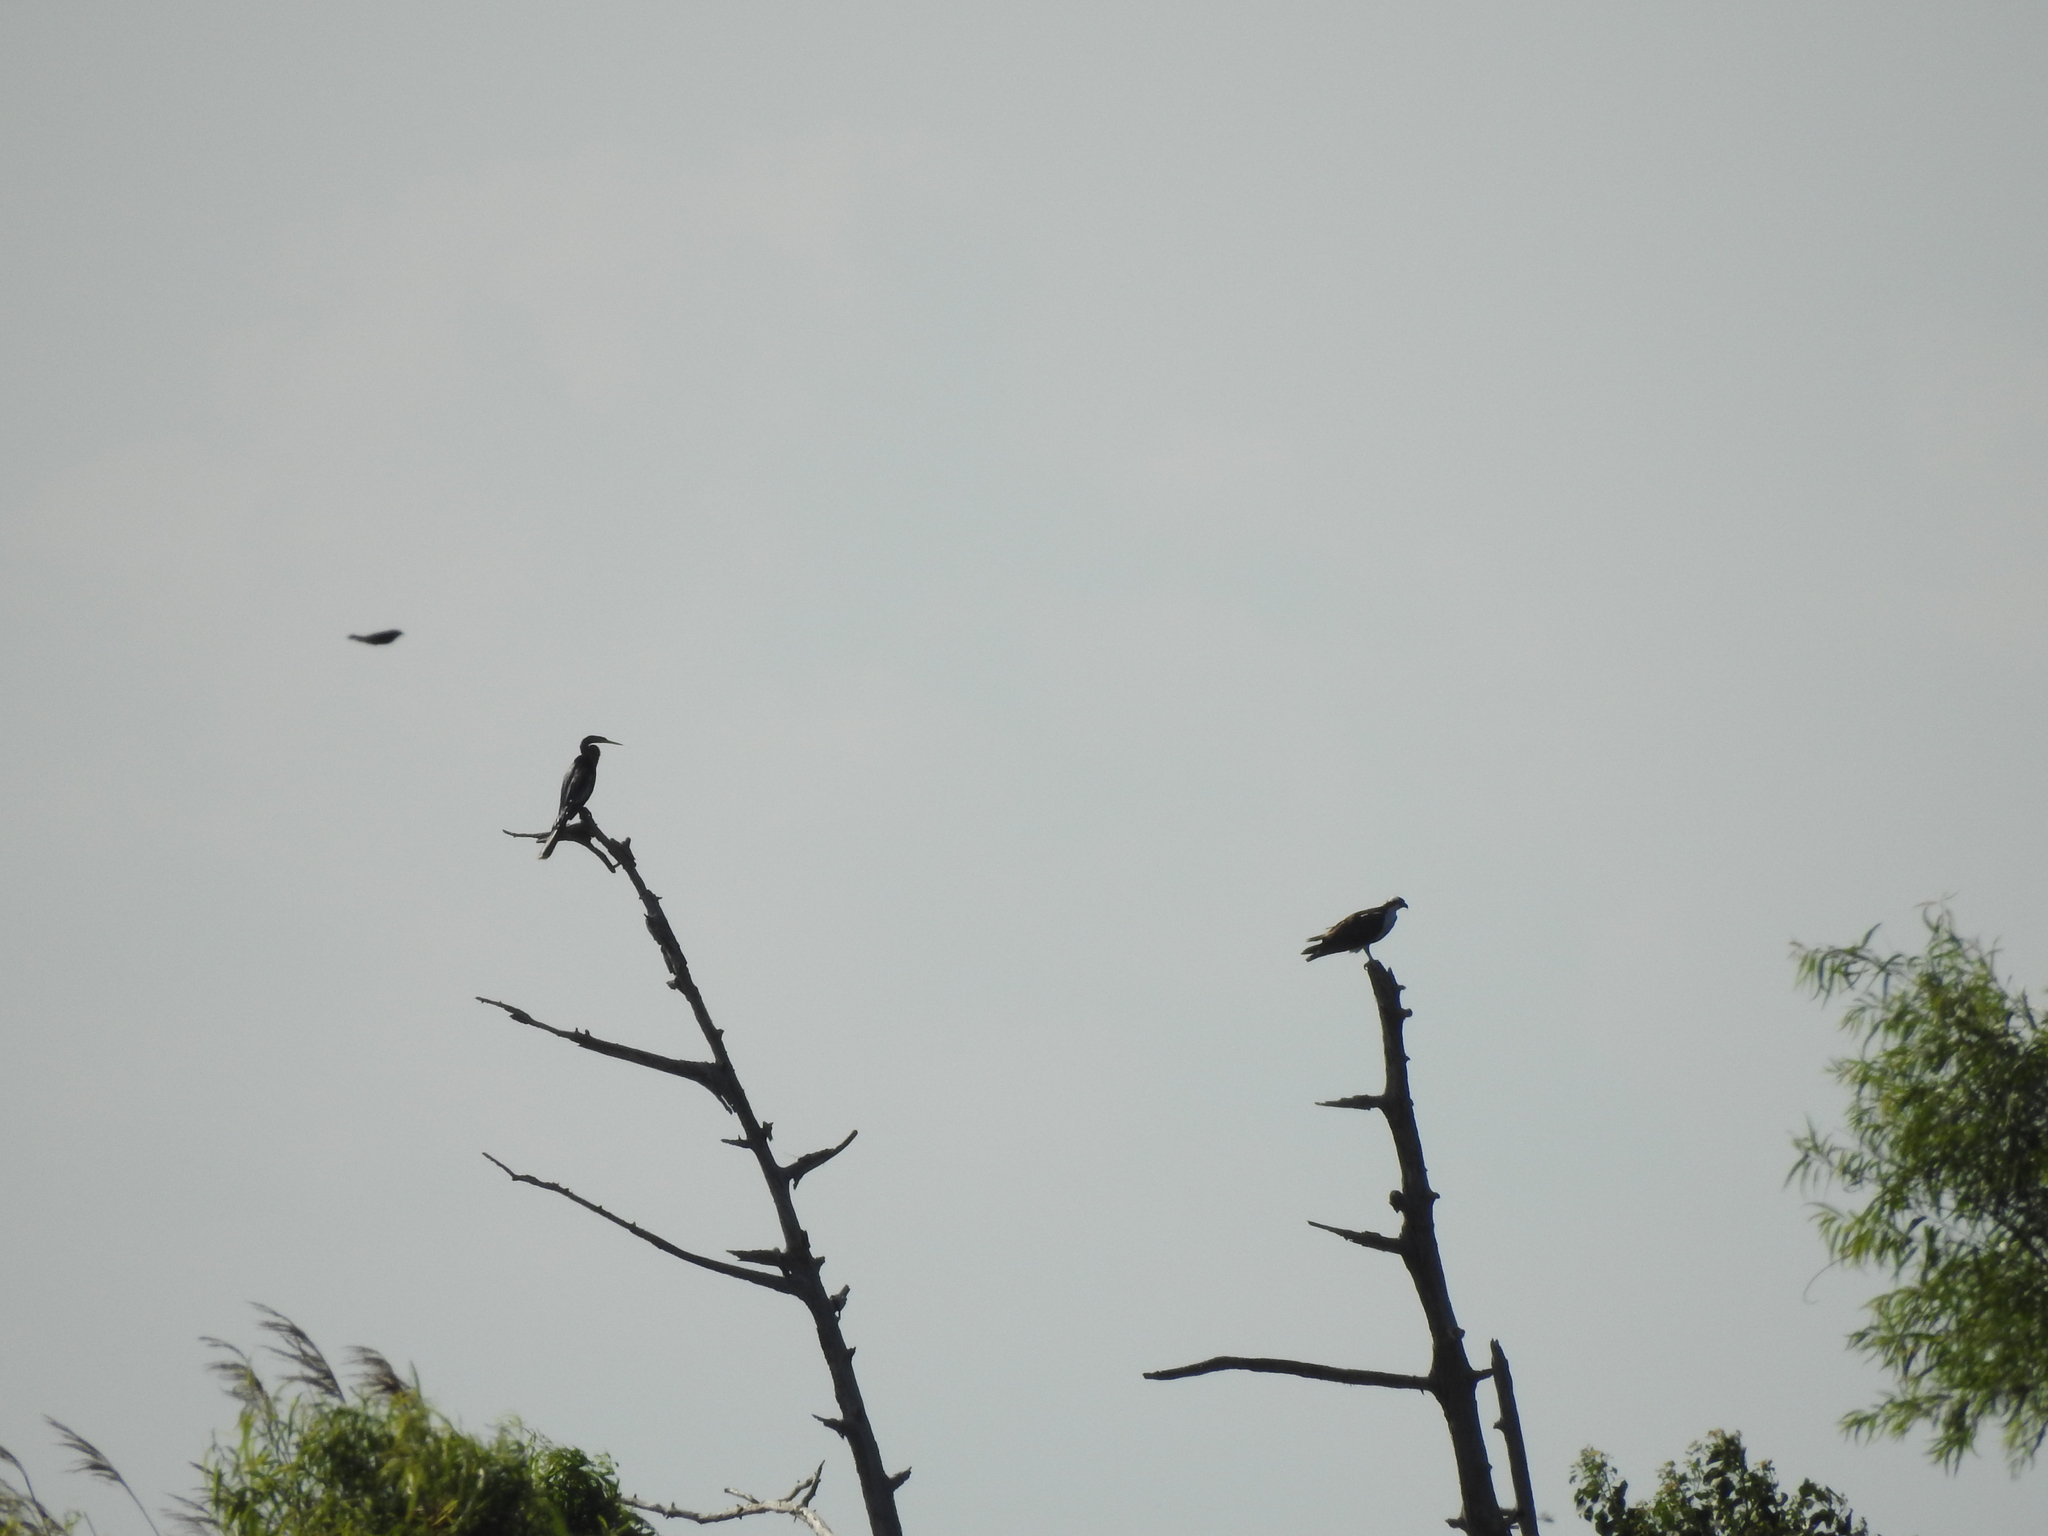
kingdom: Animalia
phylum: Chordata
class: Aves
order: Suliformes
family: Anhingidae
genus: Anhinga
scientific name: Anhinga anhinga
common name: Anhinga
